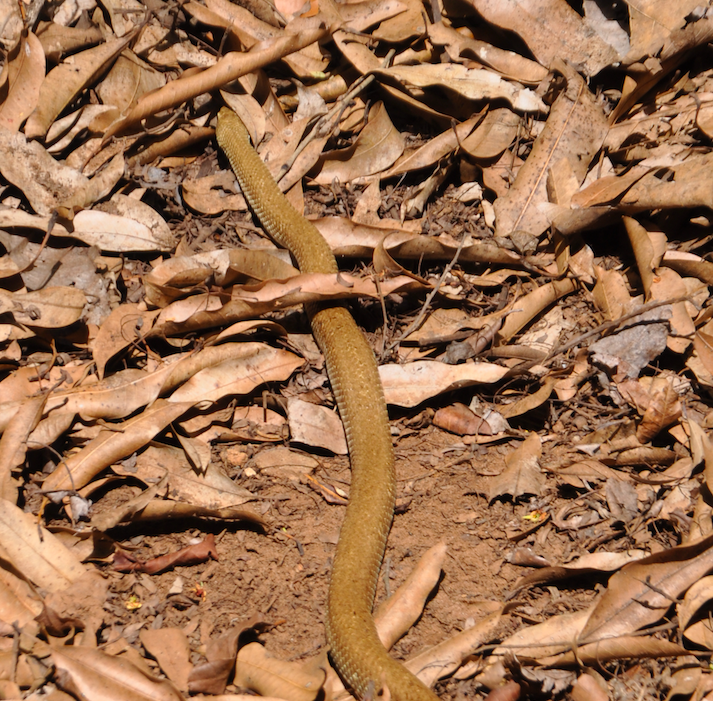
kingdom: Animalia
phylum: Chordata
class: Squamata
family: Pseudoxyrhophiidae
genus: Leioheterodon
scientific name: Leioheterodon modestus
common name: Blonde hognose snake
